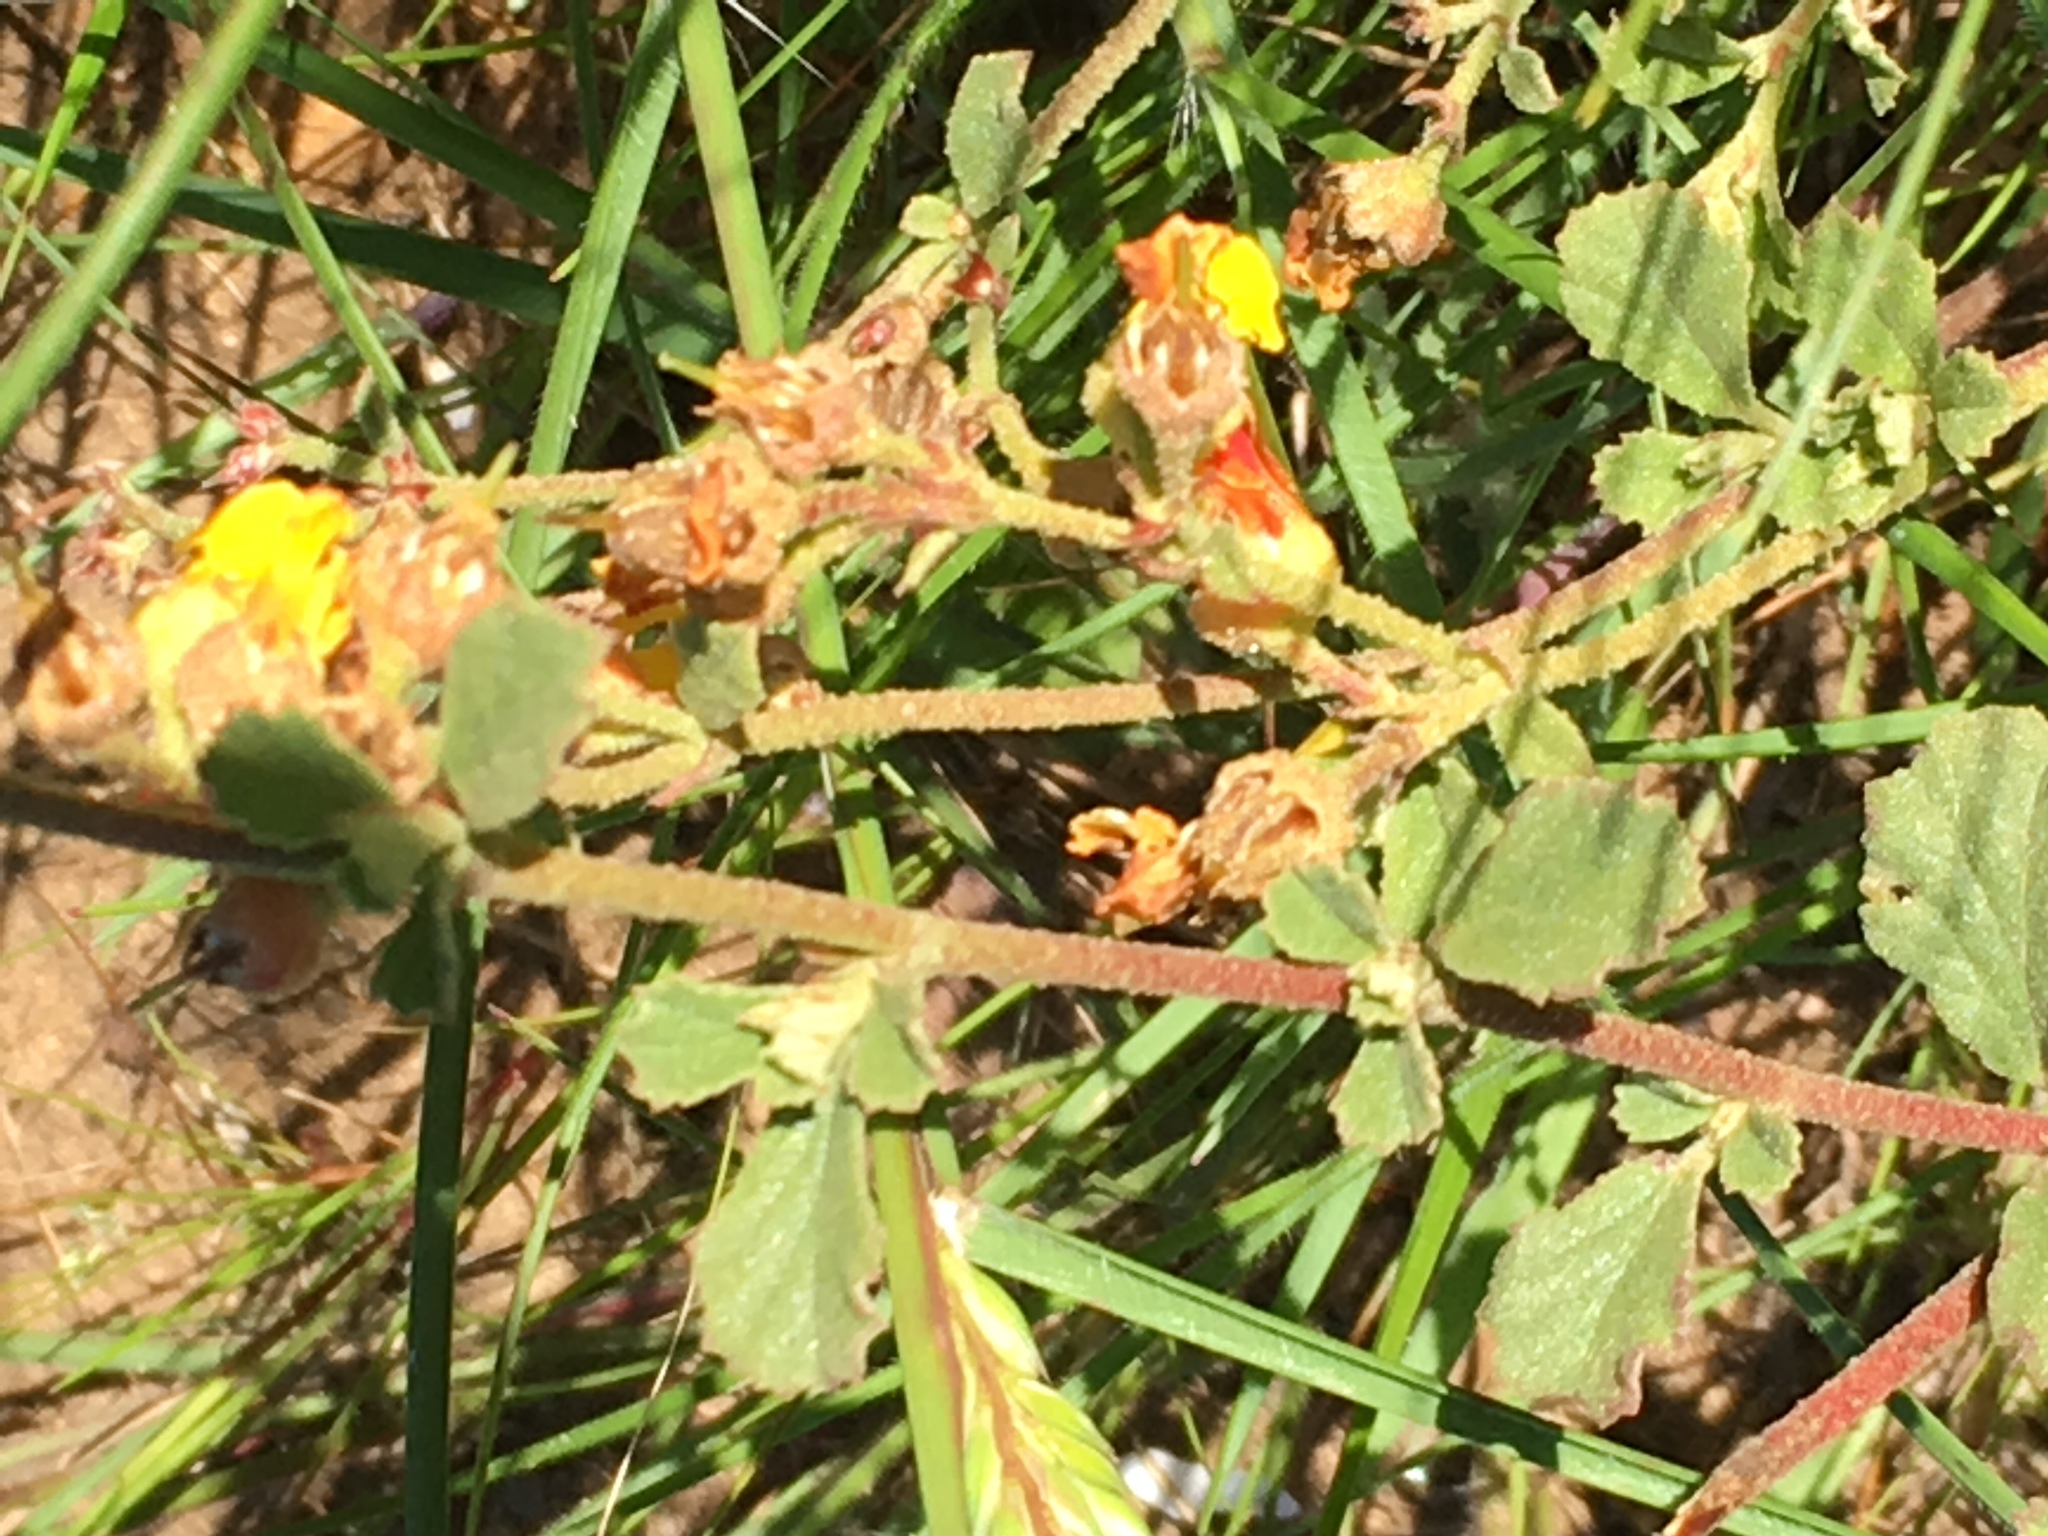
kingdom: Plantae
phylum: Tracheophyta
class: Magnoliopsida
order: Malvales
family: Malvaceae
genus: Hermannia
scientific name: Hermannia multiflora
